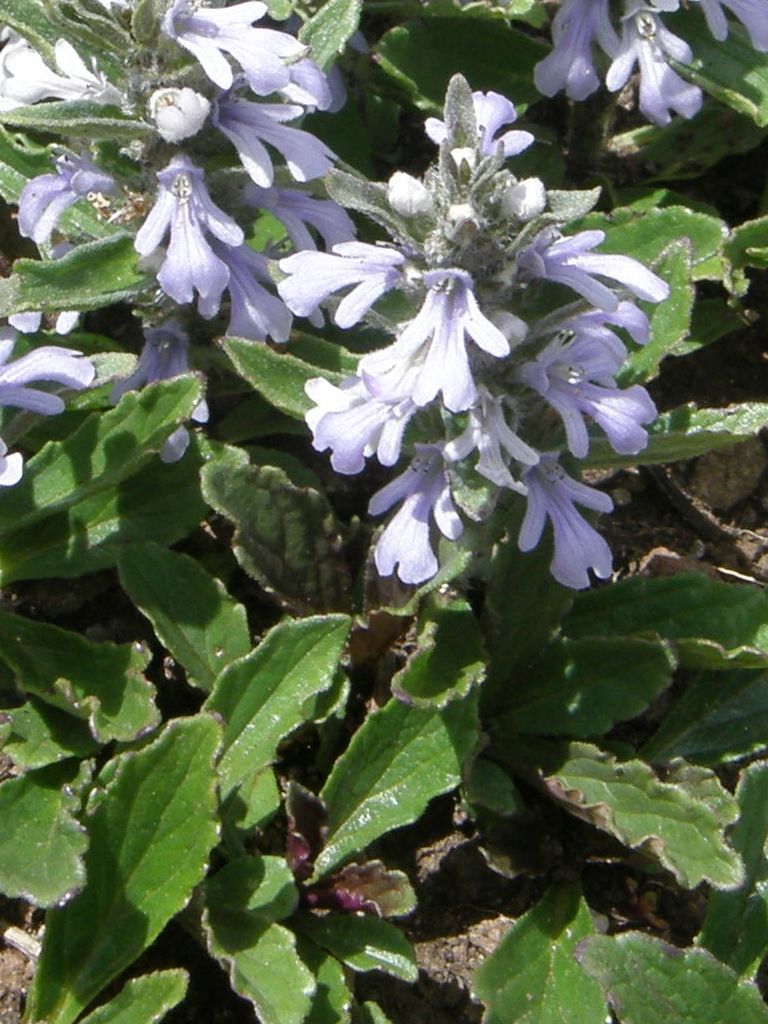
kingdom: Plantae
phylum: Tracheophyta
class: Magnoliopsida
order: Lamiales
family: Lamiaceae
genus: Ajuga
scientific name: Ajuga ophrydis
